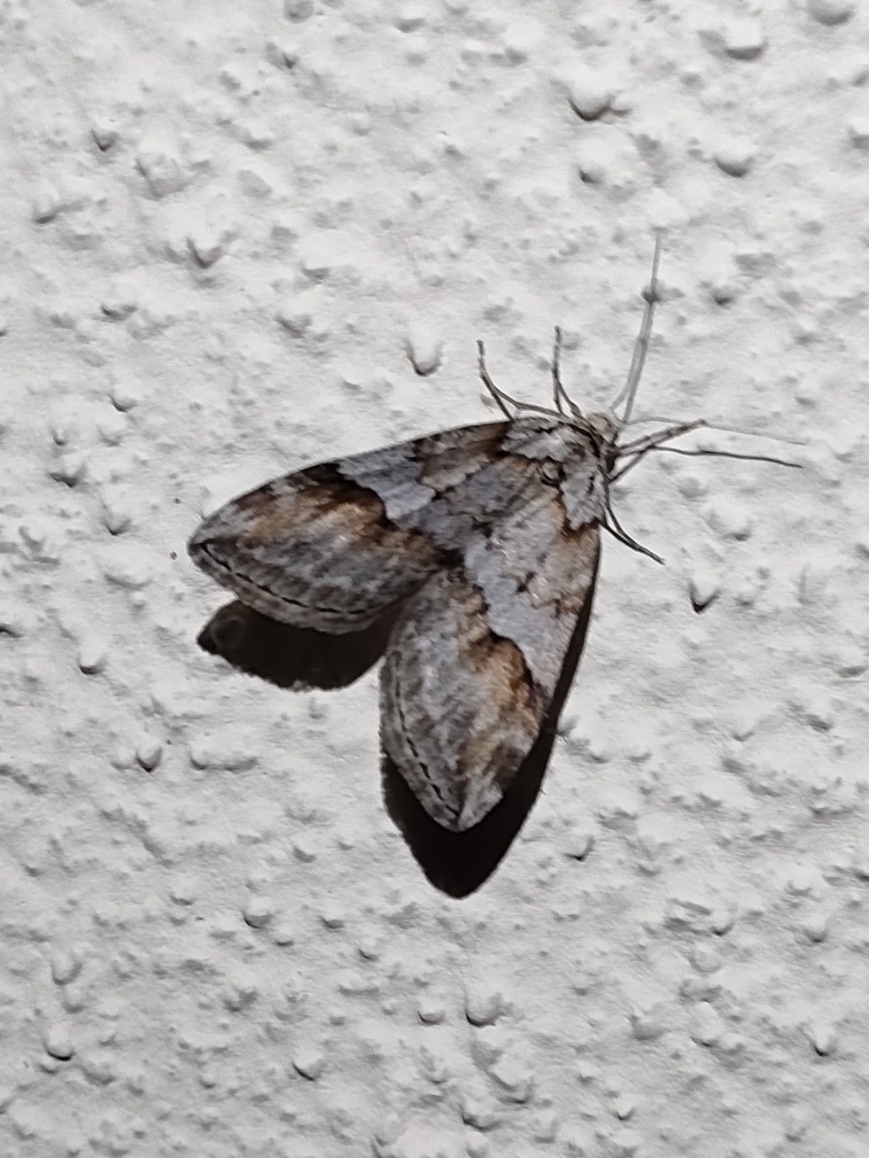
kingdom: Animalia
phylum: Arthropoda
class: Insecta
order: Lepidoptera
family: Geometridae
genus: Chesias
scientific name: Chesias rufata
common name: Broom-tip
